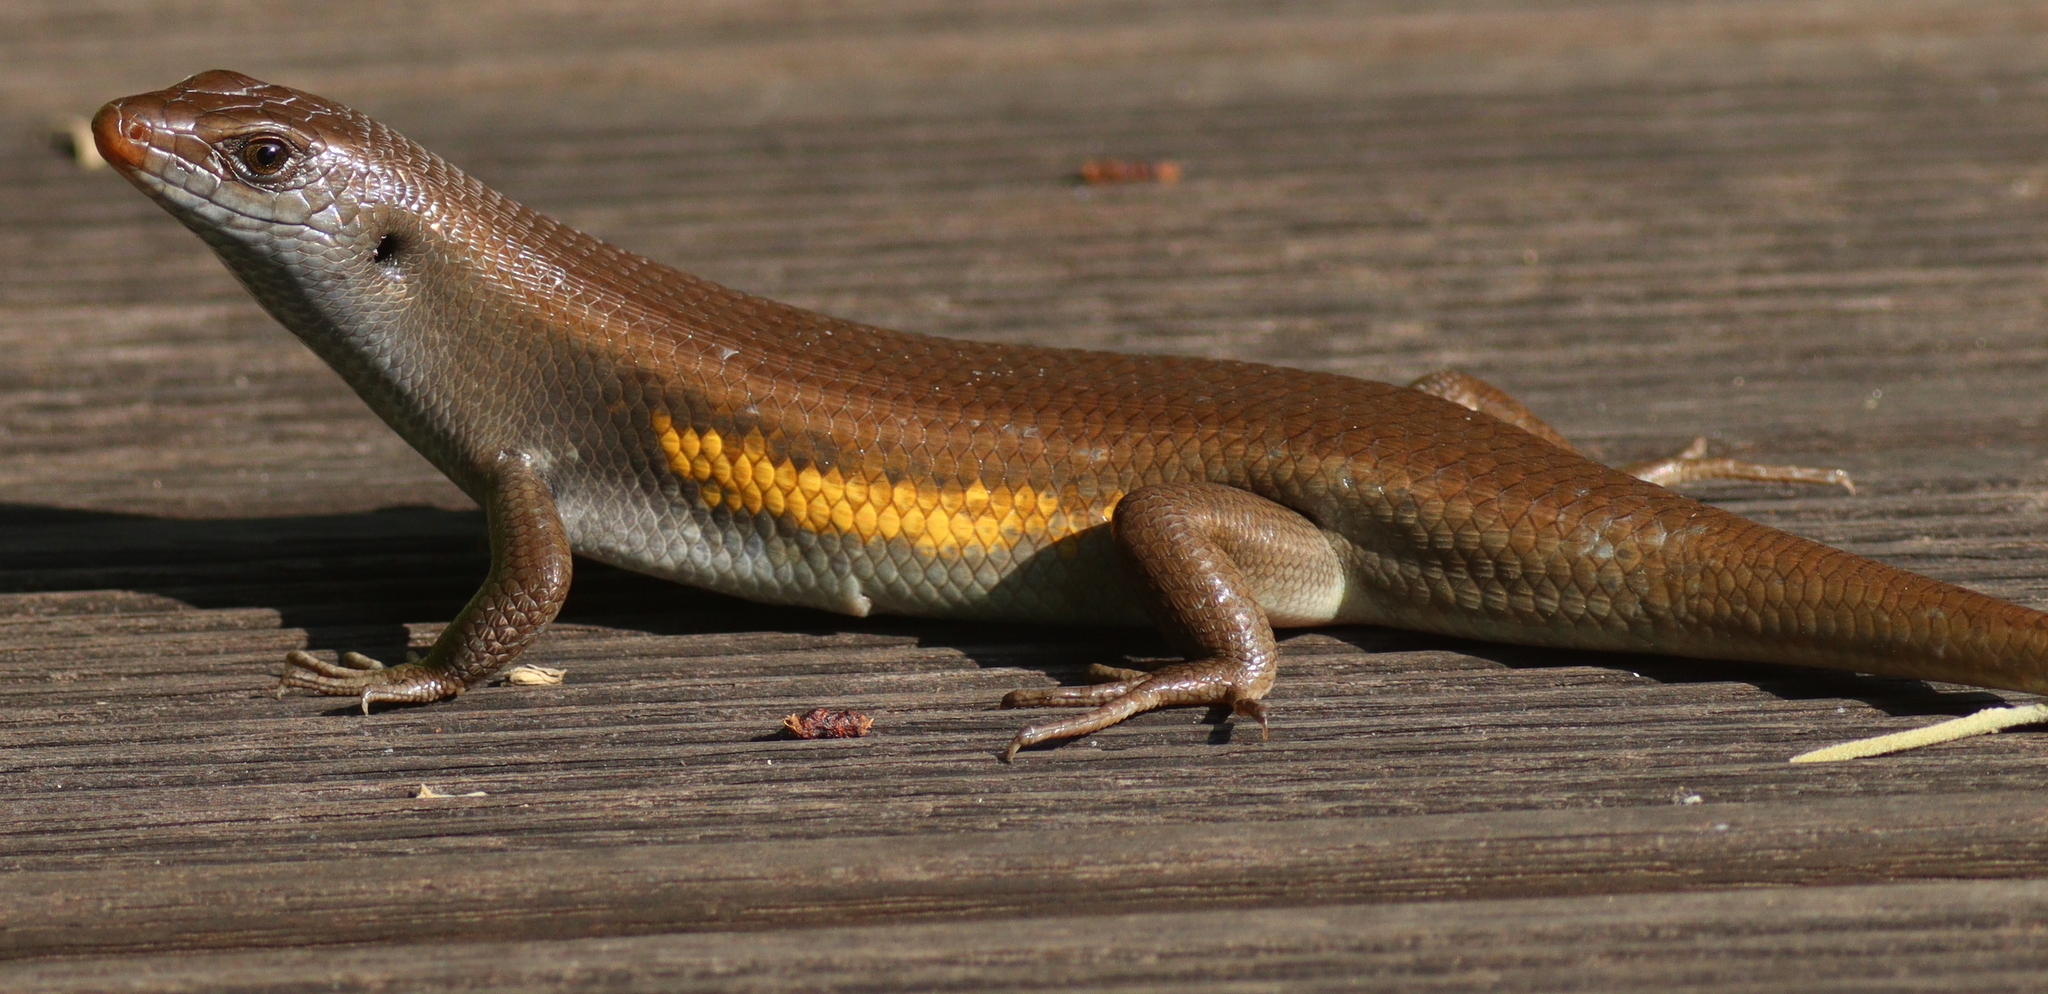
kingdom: Animalia
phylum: Chordata
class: Squamata
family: Scincidae
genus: Eutropis
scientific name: Eutropis multifasciata
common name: Common mabuya
